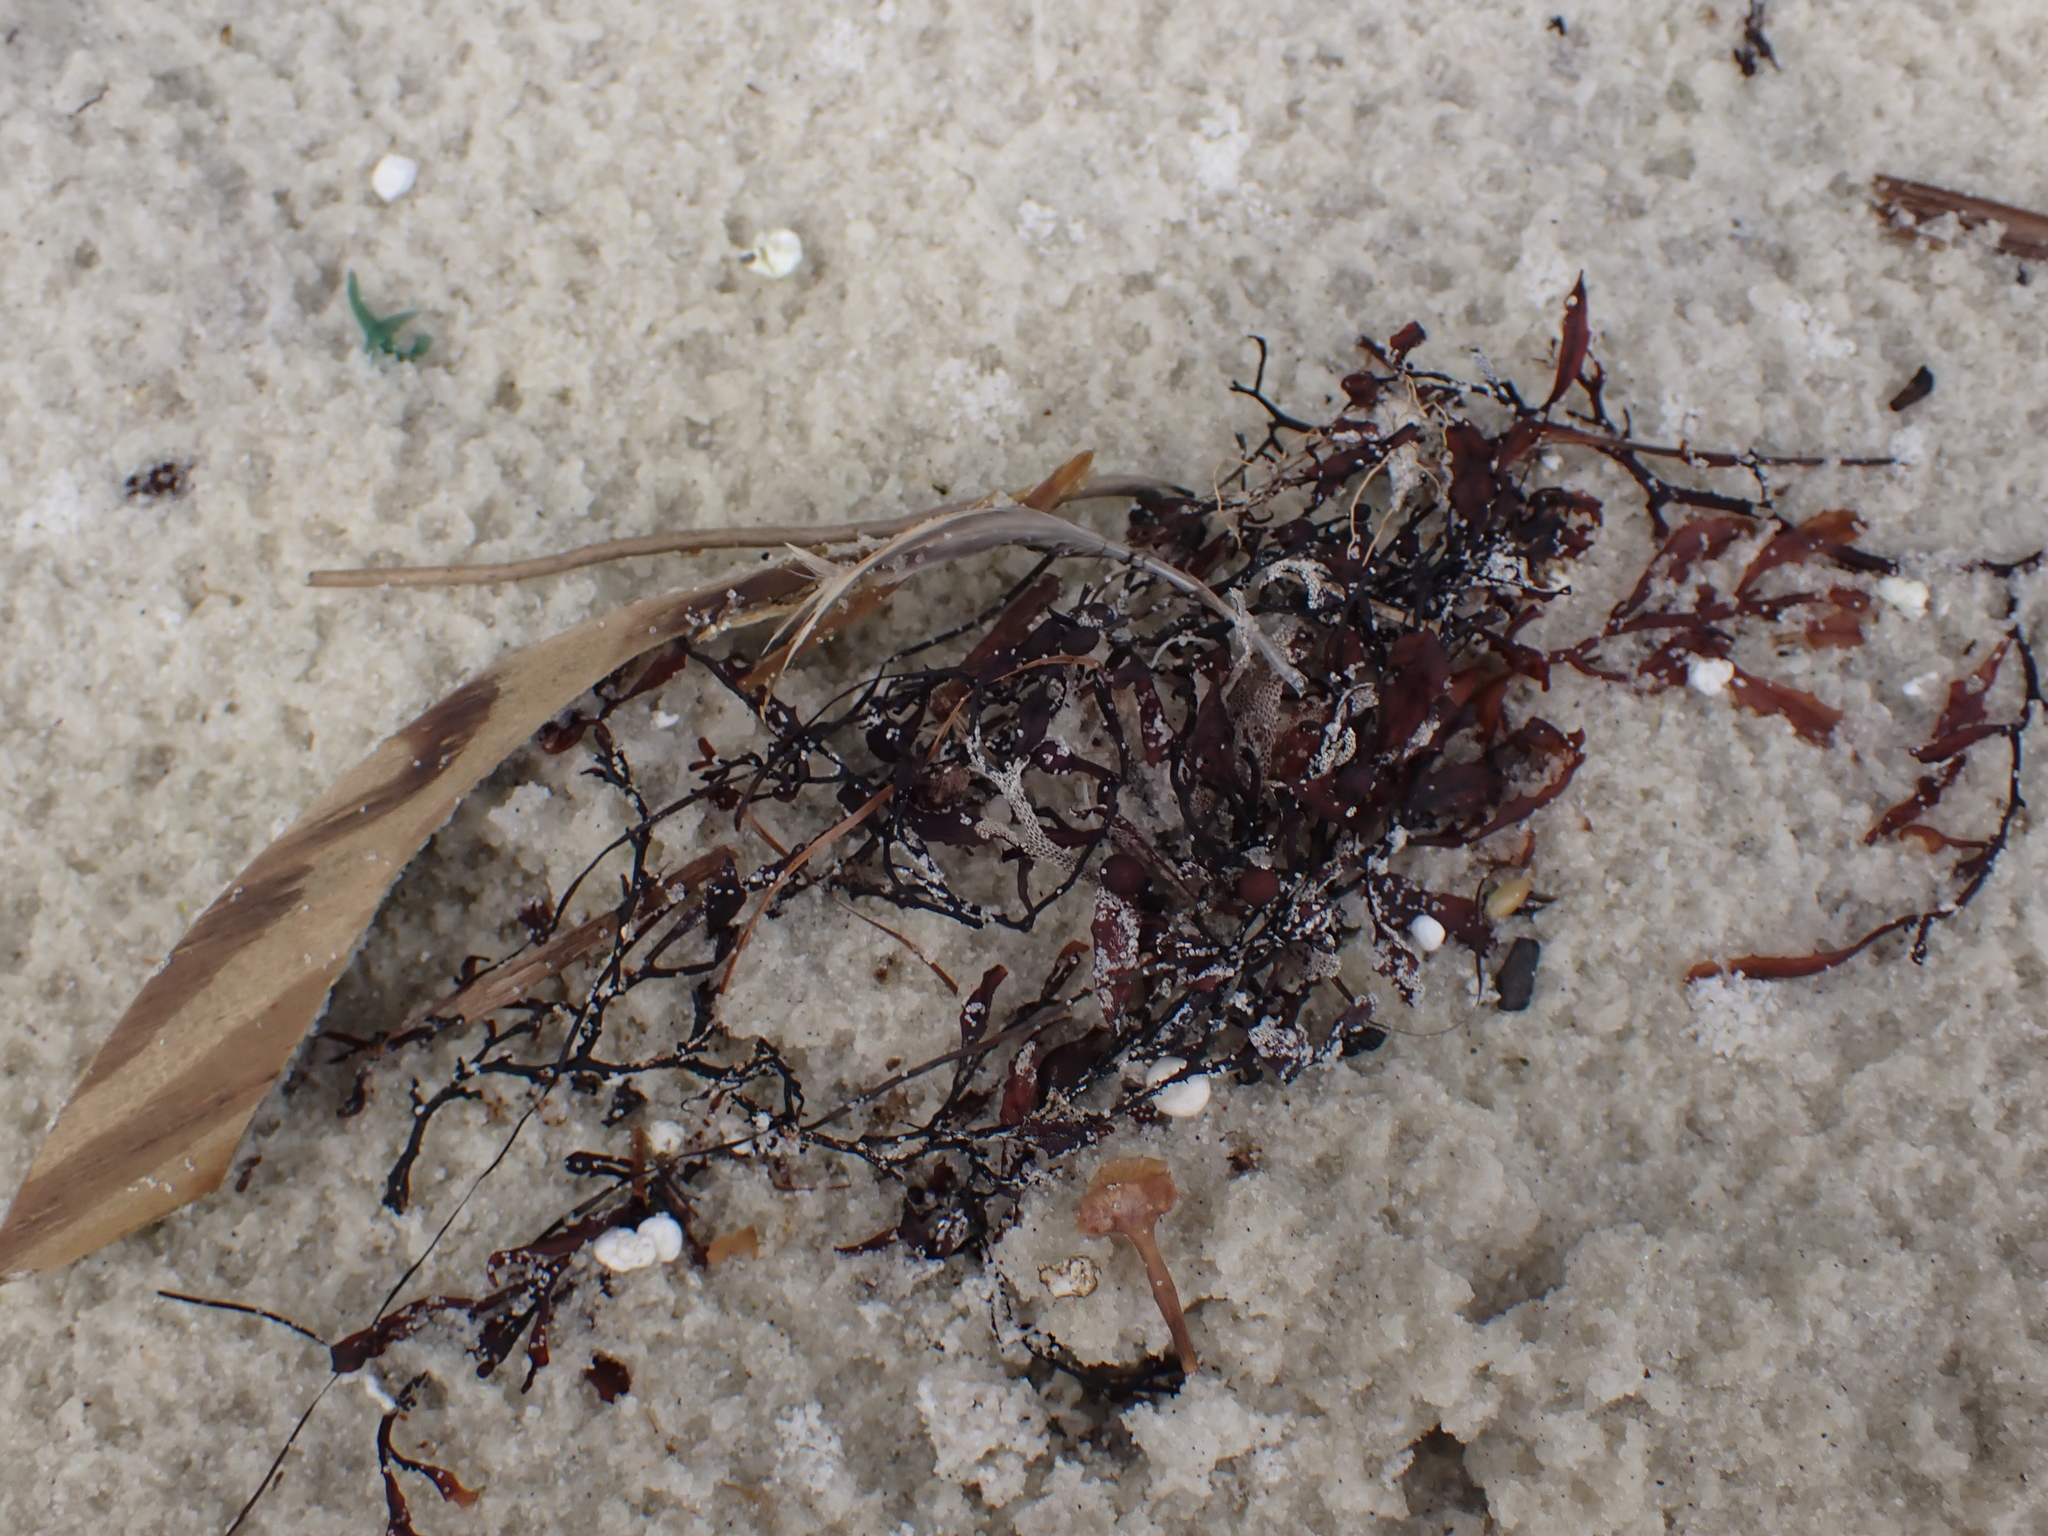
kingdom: Chromista
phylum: Ochrophyta
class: Phaeophyceae
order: Fucales
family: Sargassaceae
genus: Sargassum
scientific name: Sargassum fluitans
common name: Sargassum seaweed
